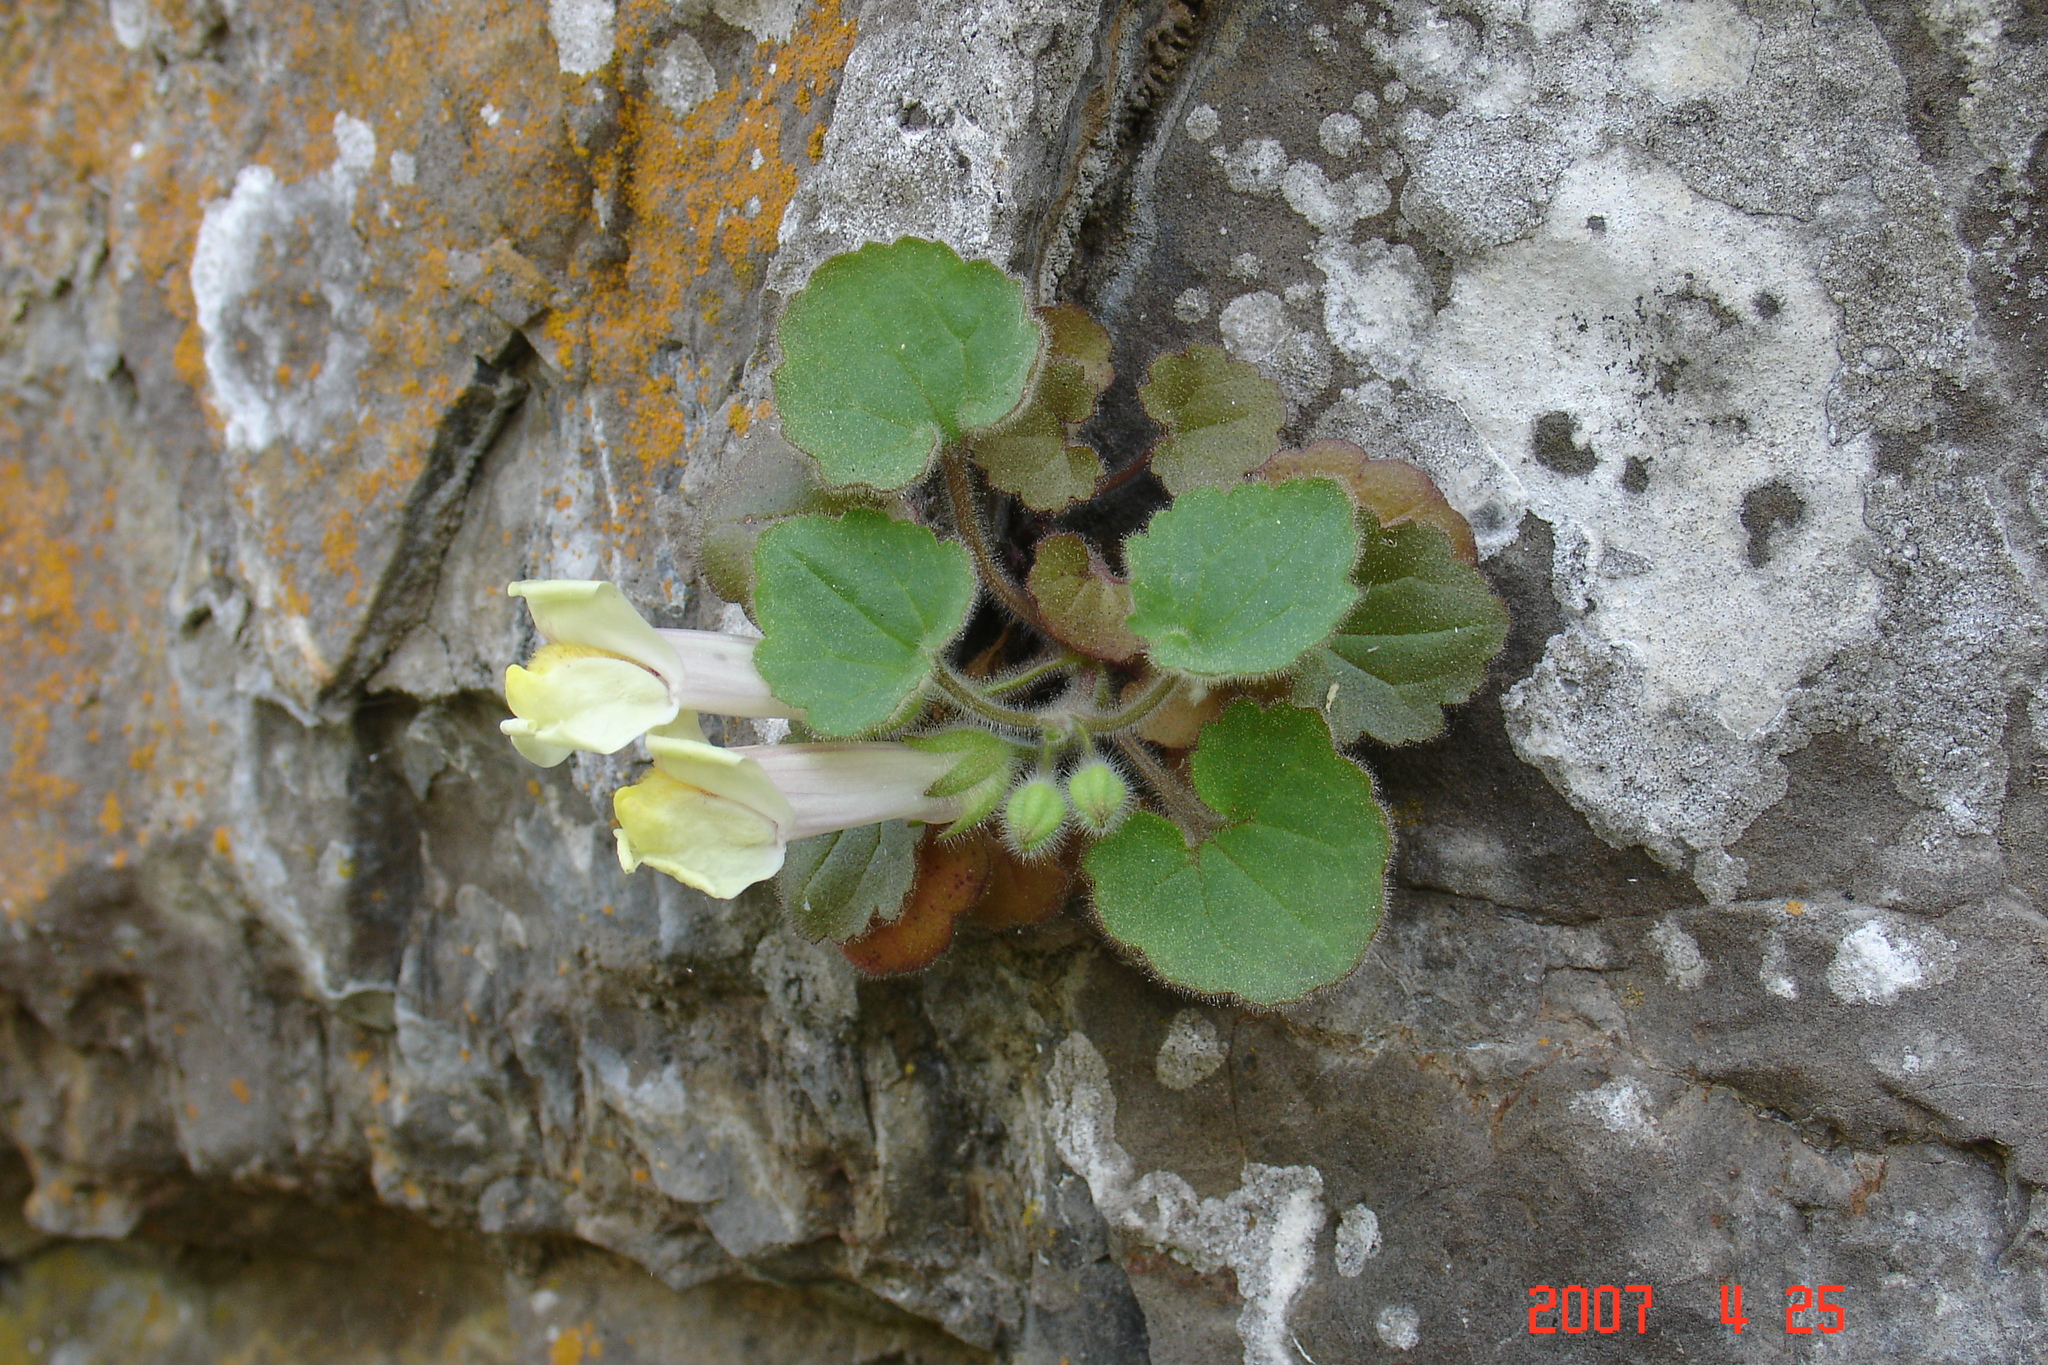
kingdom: Plantae
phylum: Tracheophyta
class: Magnoliopsida
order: Lamiales
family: Plantaginaceae
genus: Asarina
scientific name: Asarina procumbens
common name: Trailing snapdragon
